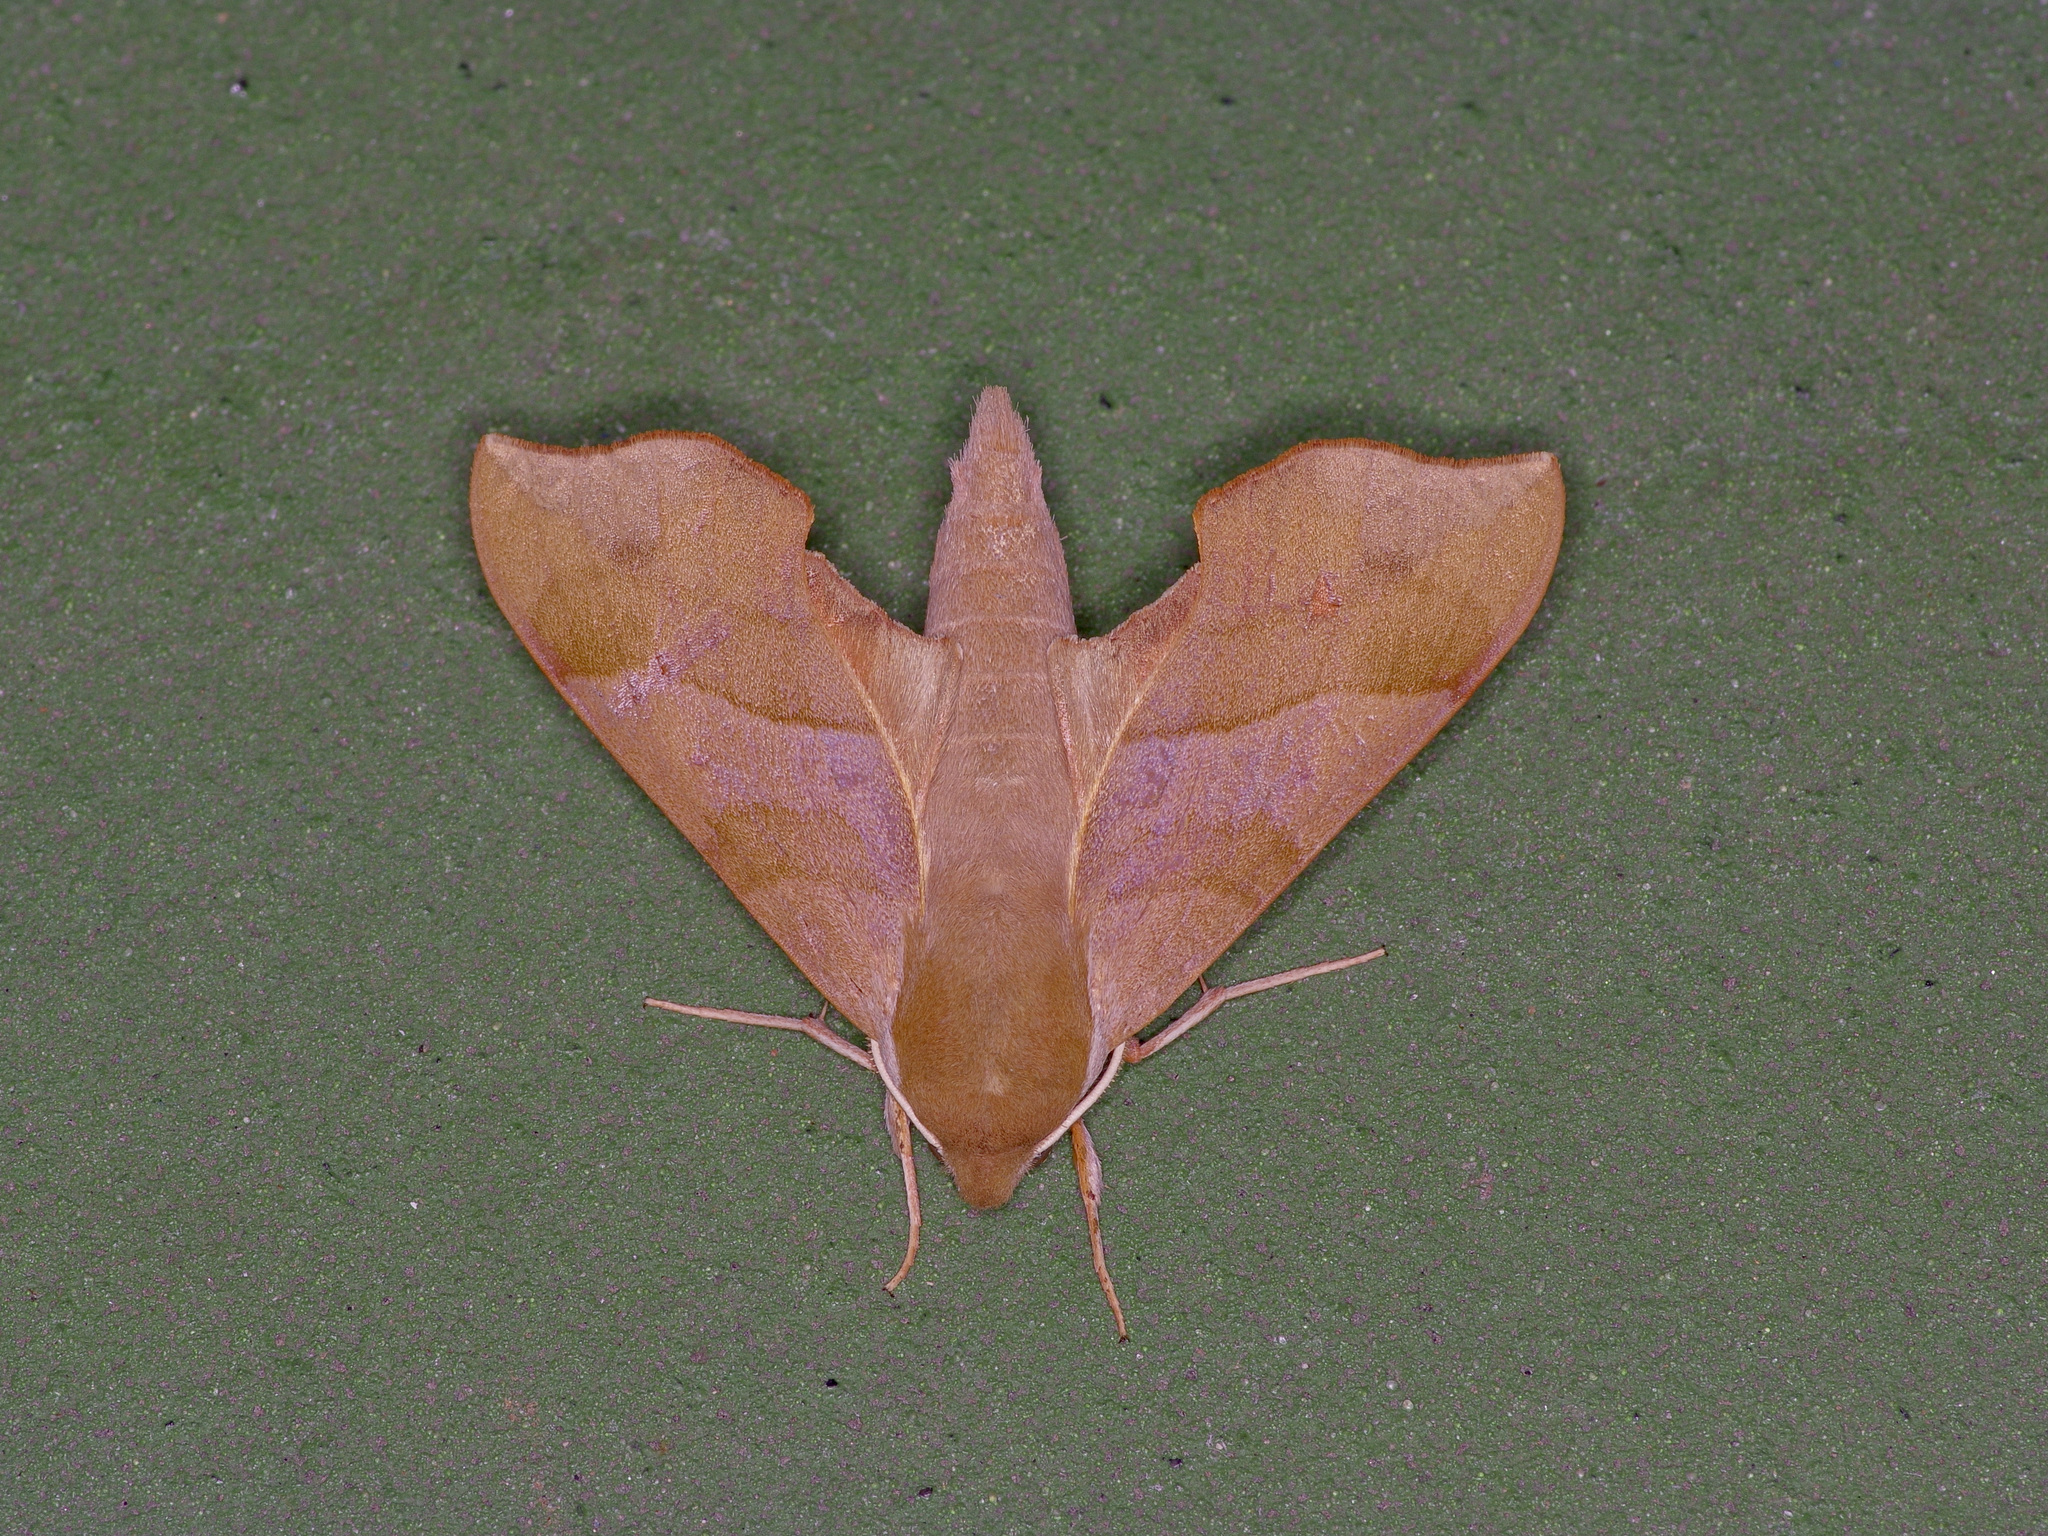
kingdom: Animalia
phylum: Arthropoda
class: Insecta
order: Lepidoptera
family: Sphingidae
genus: Darapsa
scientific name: Darapsa myron
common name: Hog sphinx
